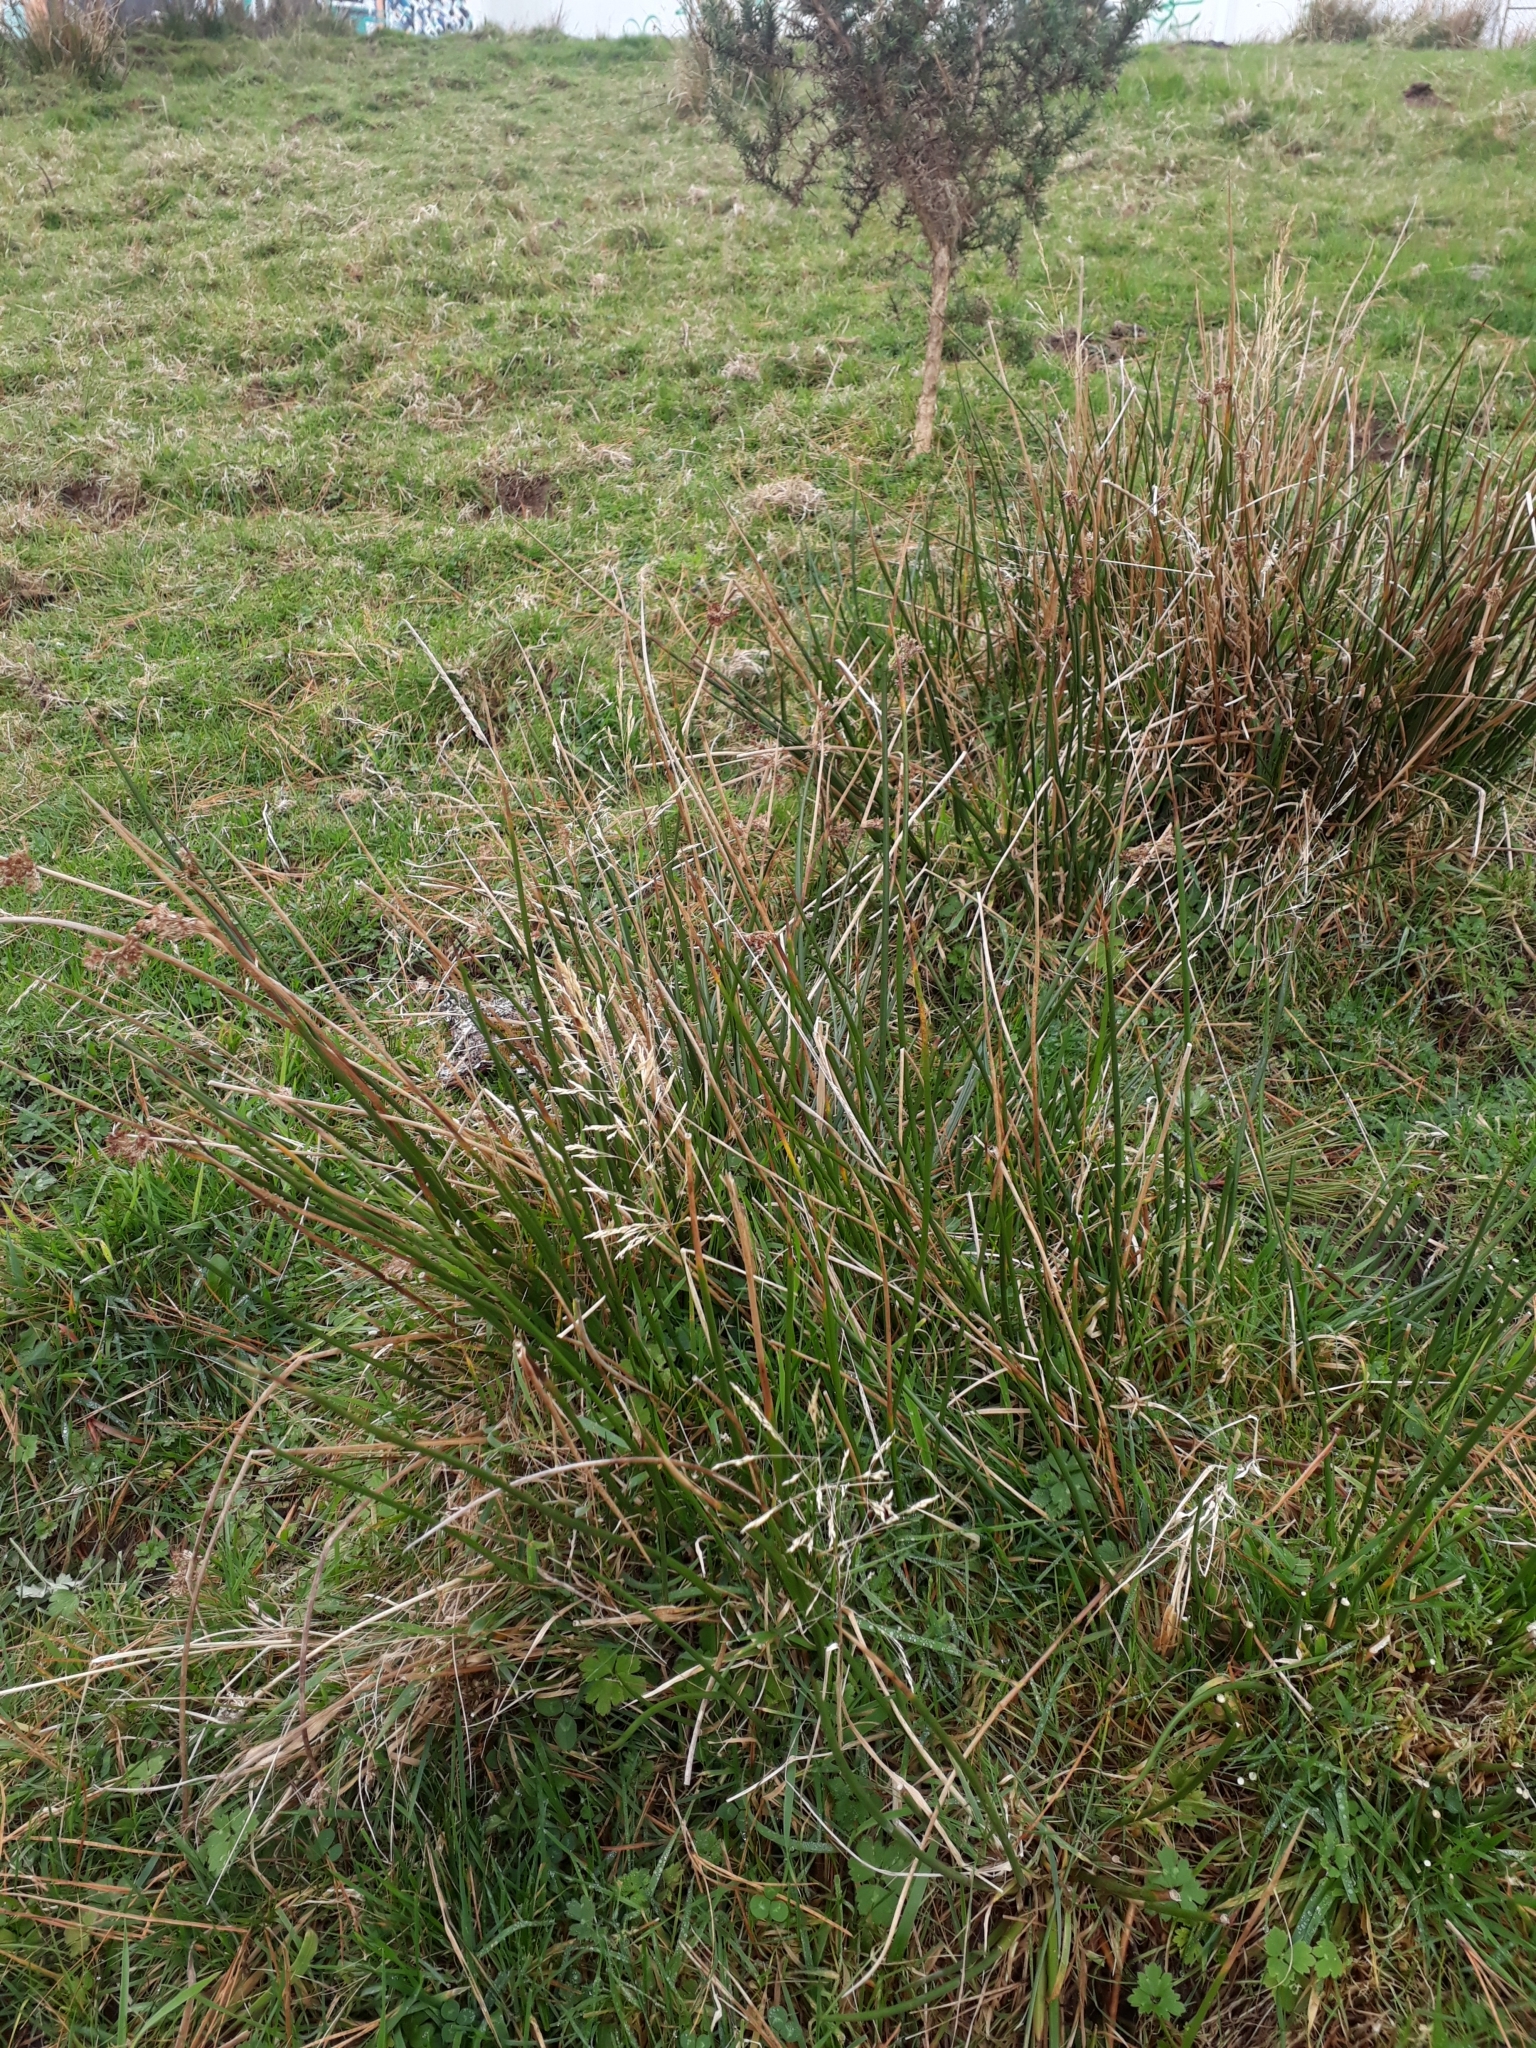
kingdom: Plantae
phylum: Tracheophyta
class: Liliopsida
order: Poales
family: Juncaceae
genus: Juncus
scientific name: Juncus effusus
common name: Soft rush
